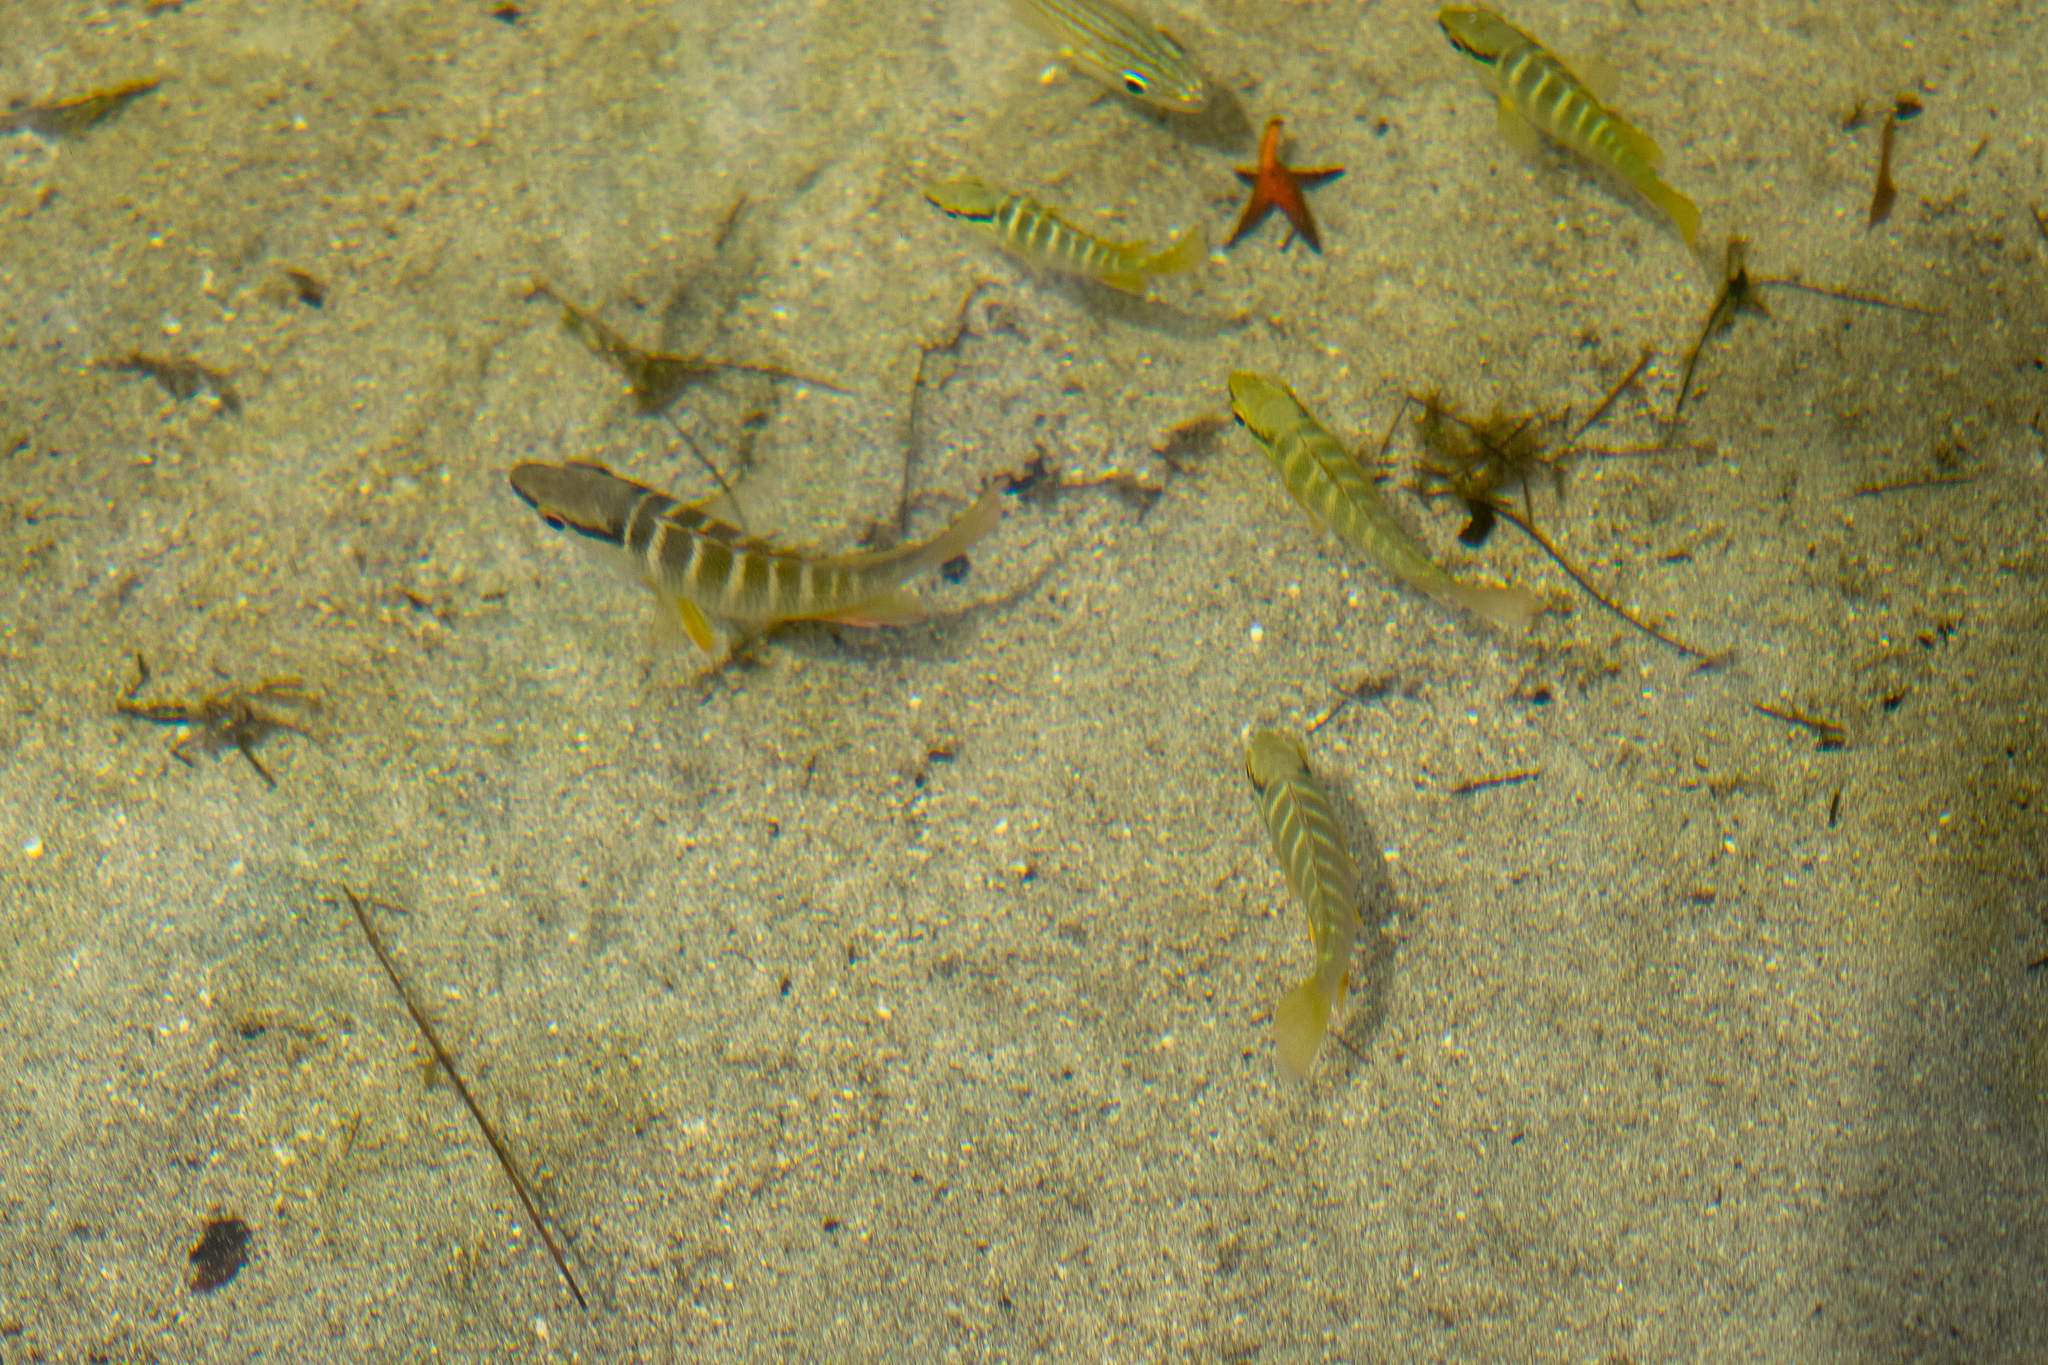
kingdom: Animalia
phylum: Chordata
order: Perciformes
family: Lutjanidae
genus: Lutjanus
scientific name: Lutjanus apodus
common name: Schoolmaster
